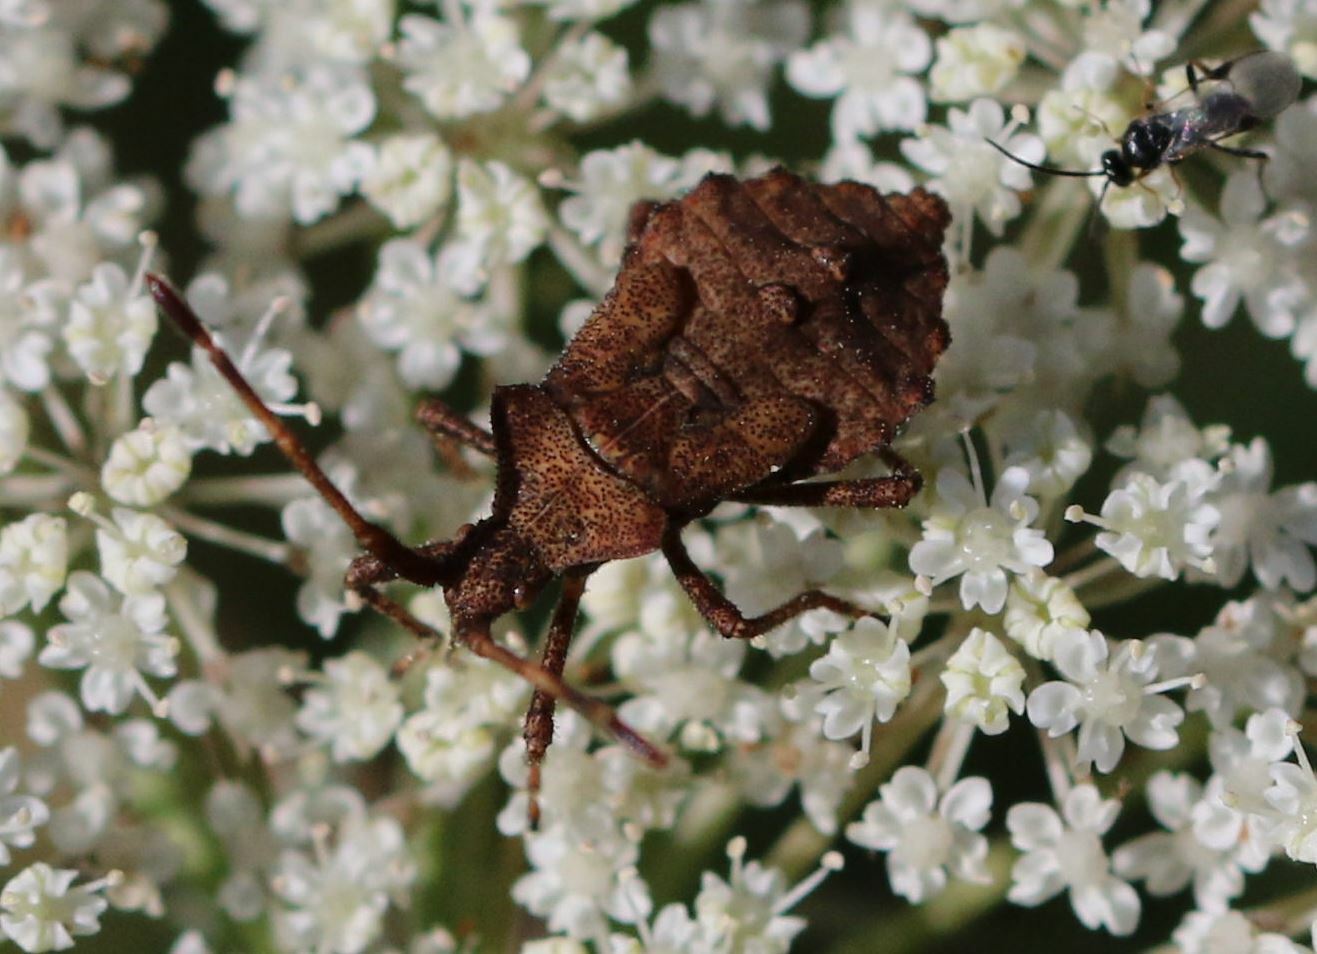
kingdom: Animalia
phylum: Arthropoda
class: Insecta
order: Hemiptera
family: Coreidae
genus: Coreus
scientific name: Coreus marginatus
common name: Dock bug
